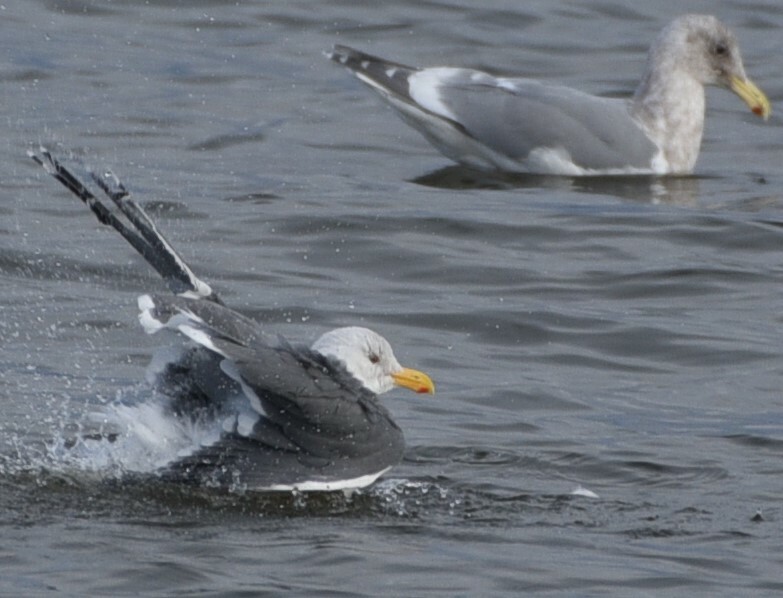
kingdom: Animalia
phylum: Chordata
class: Aves
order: Charadriiformes
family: Laridae
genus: Larus
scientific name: Larus occidentalis
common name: Western gull
